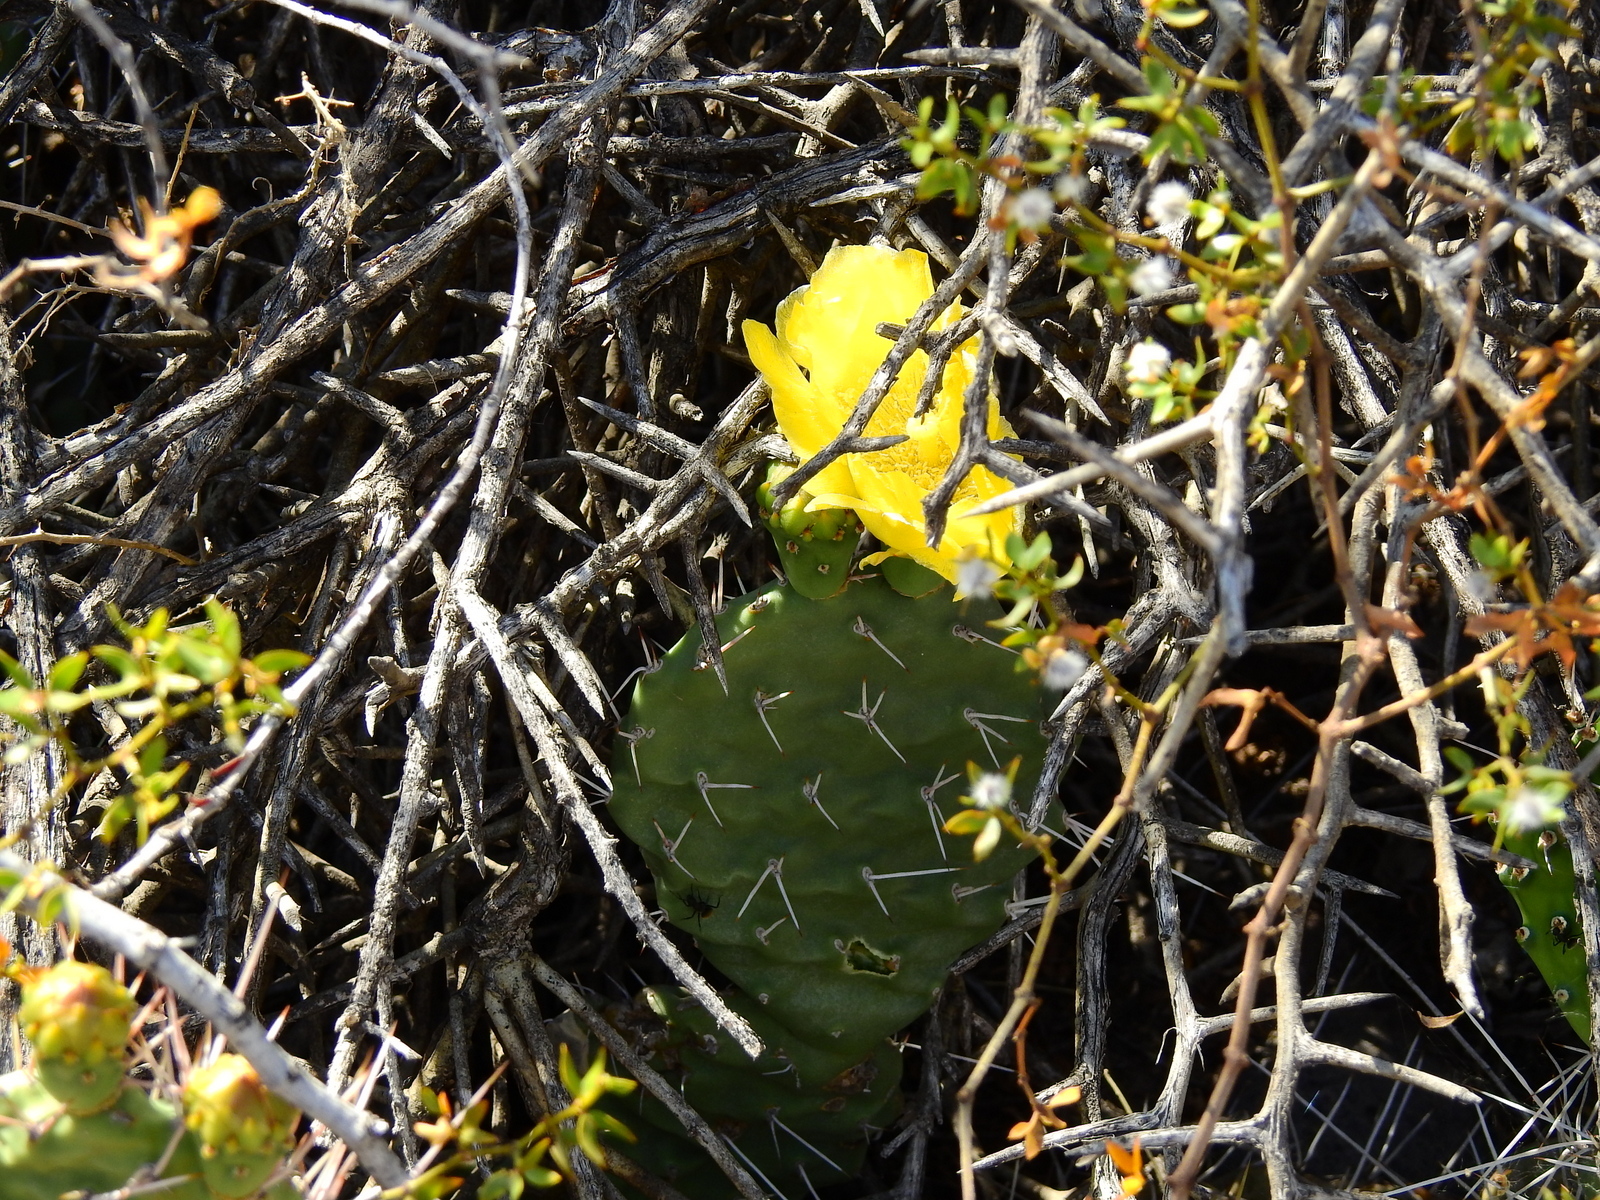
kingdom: Plantae
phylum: Tracheophyta
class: Magnoliopsida
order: Caryophyllales
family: Cactaceae
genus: Opuntia
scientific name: Opuntia sulphurea
